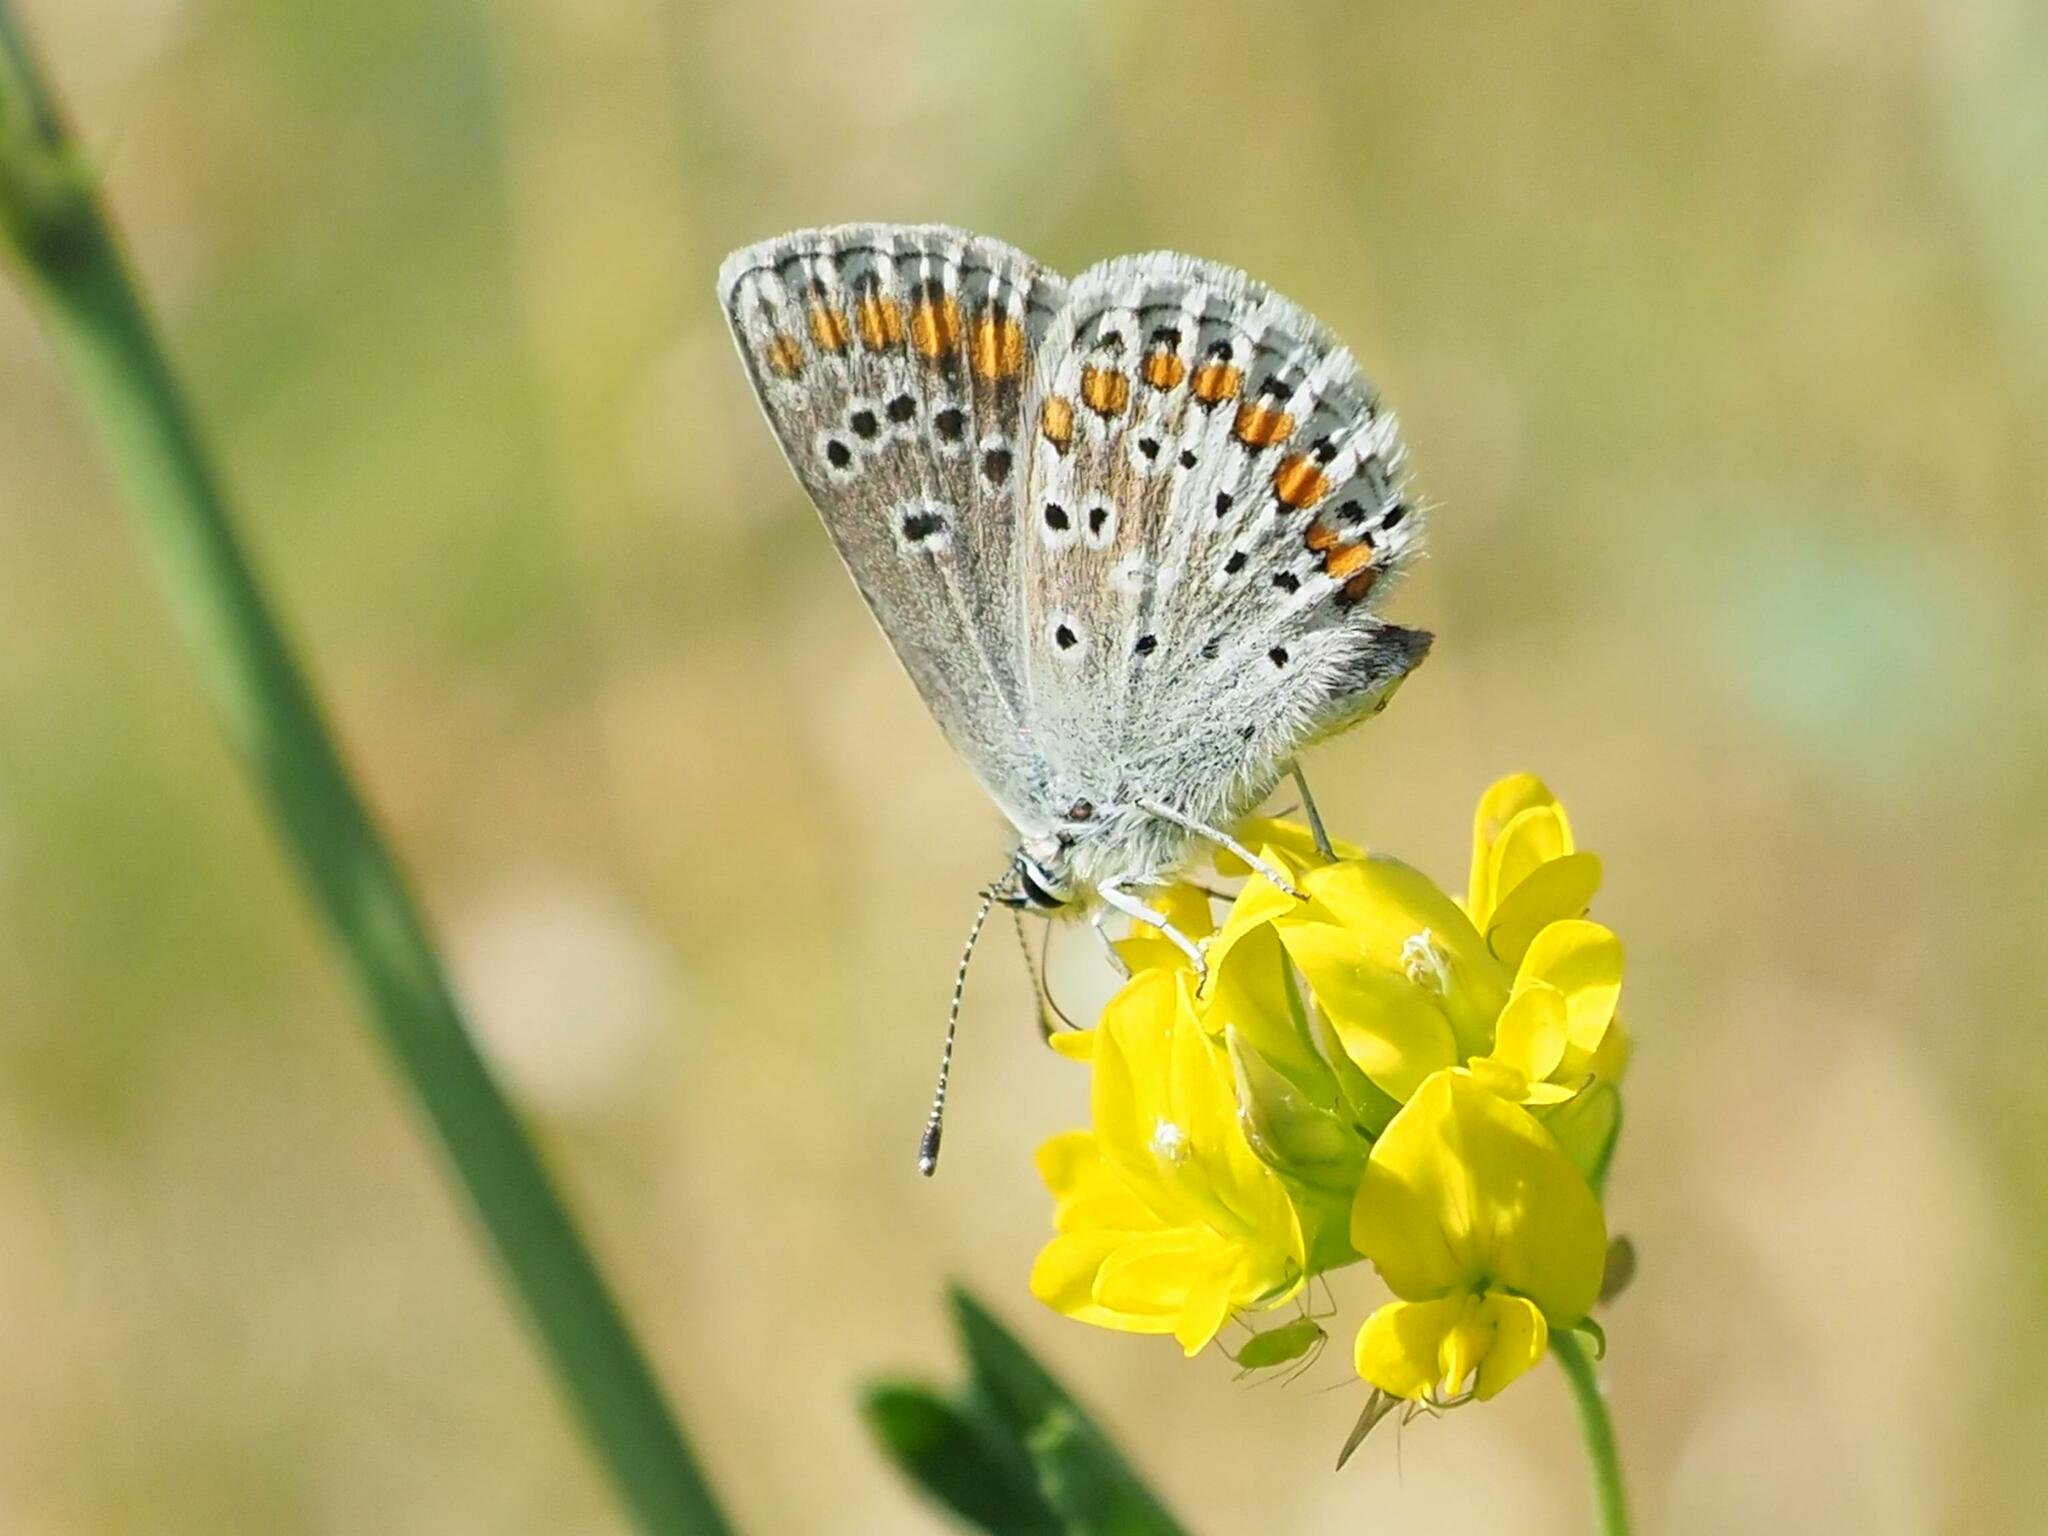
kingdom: Animalia
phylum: Arthropoda
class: Insecta
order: Lepidoptera
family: Lycaenidae
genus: Aricia
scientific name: Aricia agestis
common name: Brown argus
